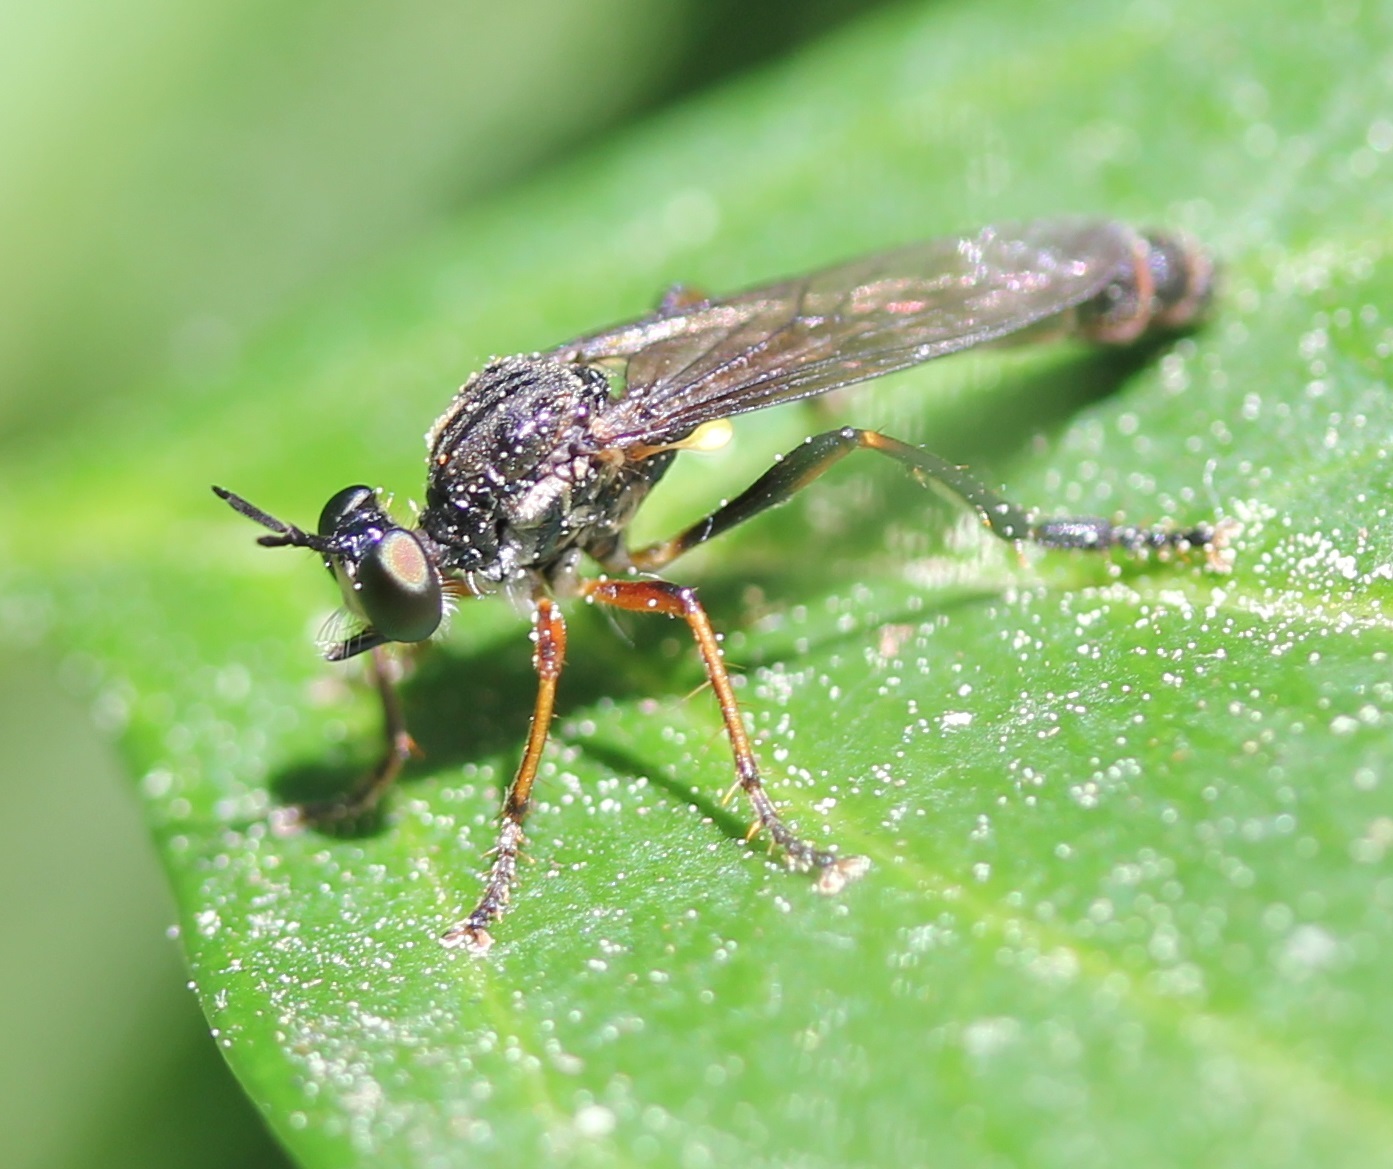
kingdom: Animalia
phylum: Arthropoda
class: Insecta
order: Diptera
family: Asilidae
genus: Dioctria
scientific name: Dioctria hyalipennis
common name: Stripe-legged robberfly
